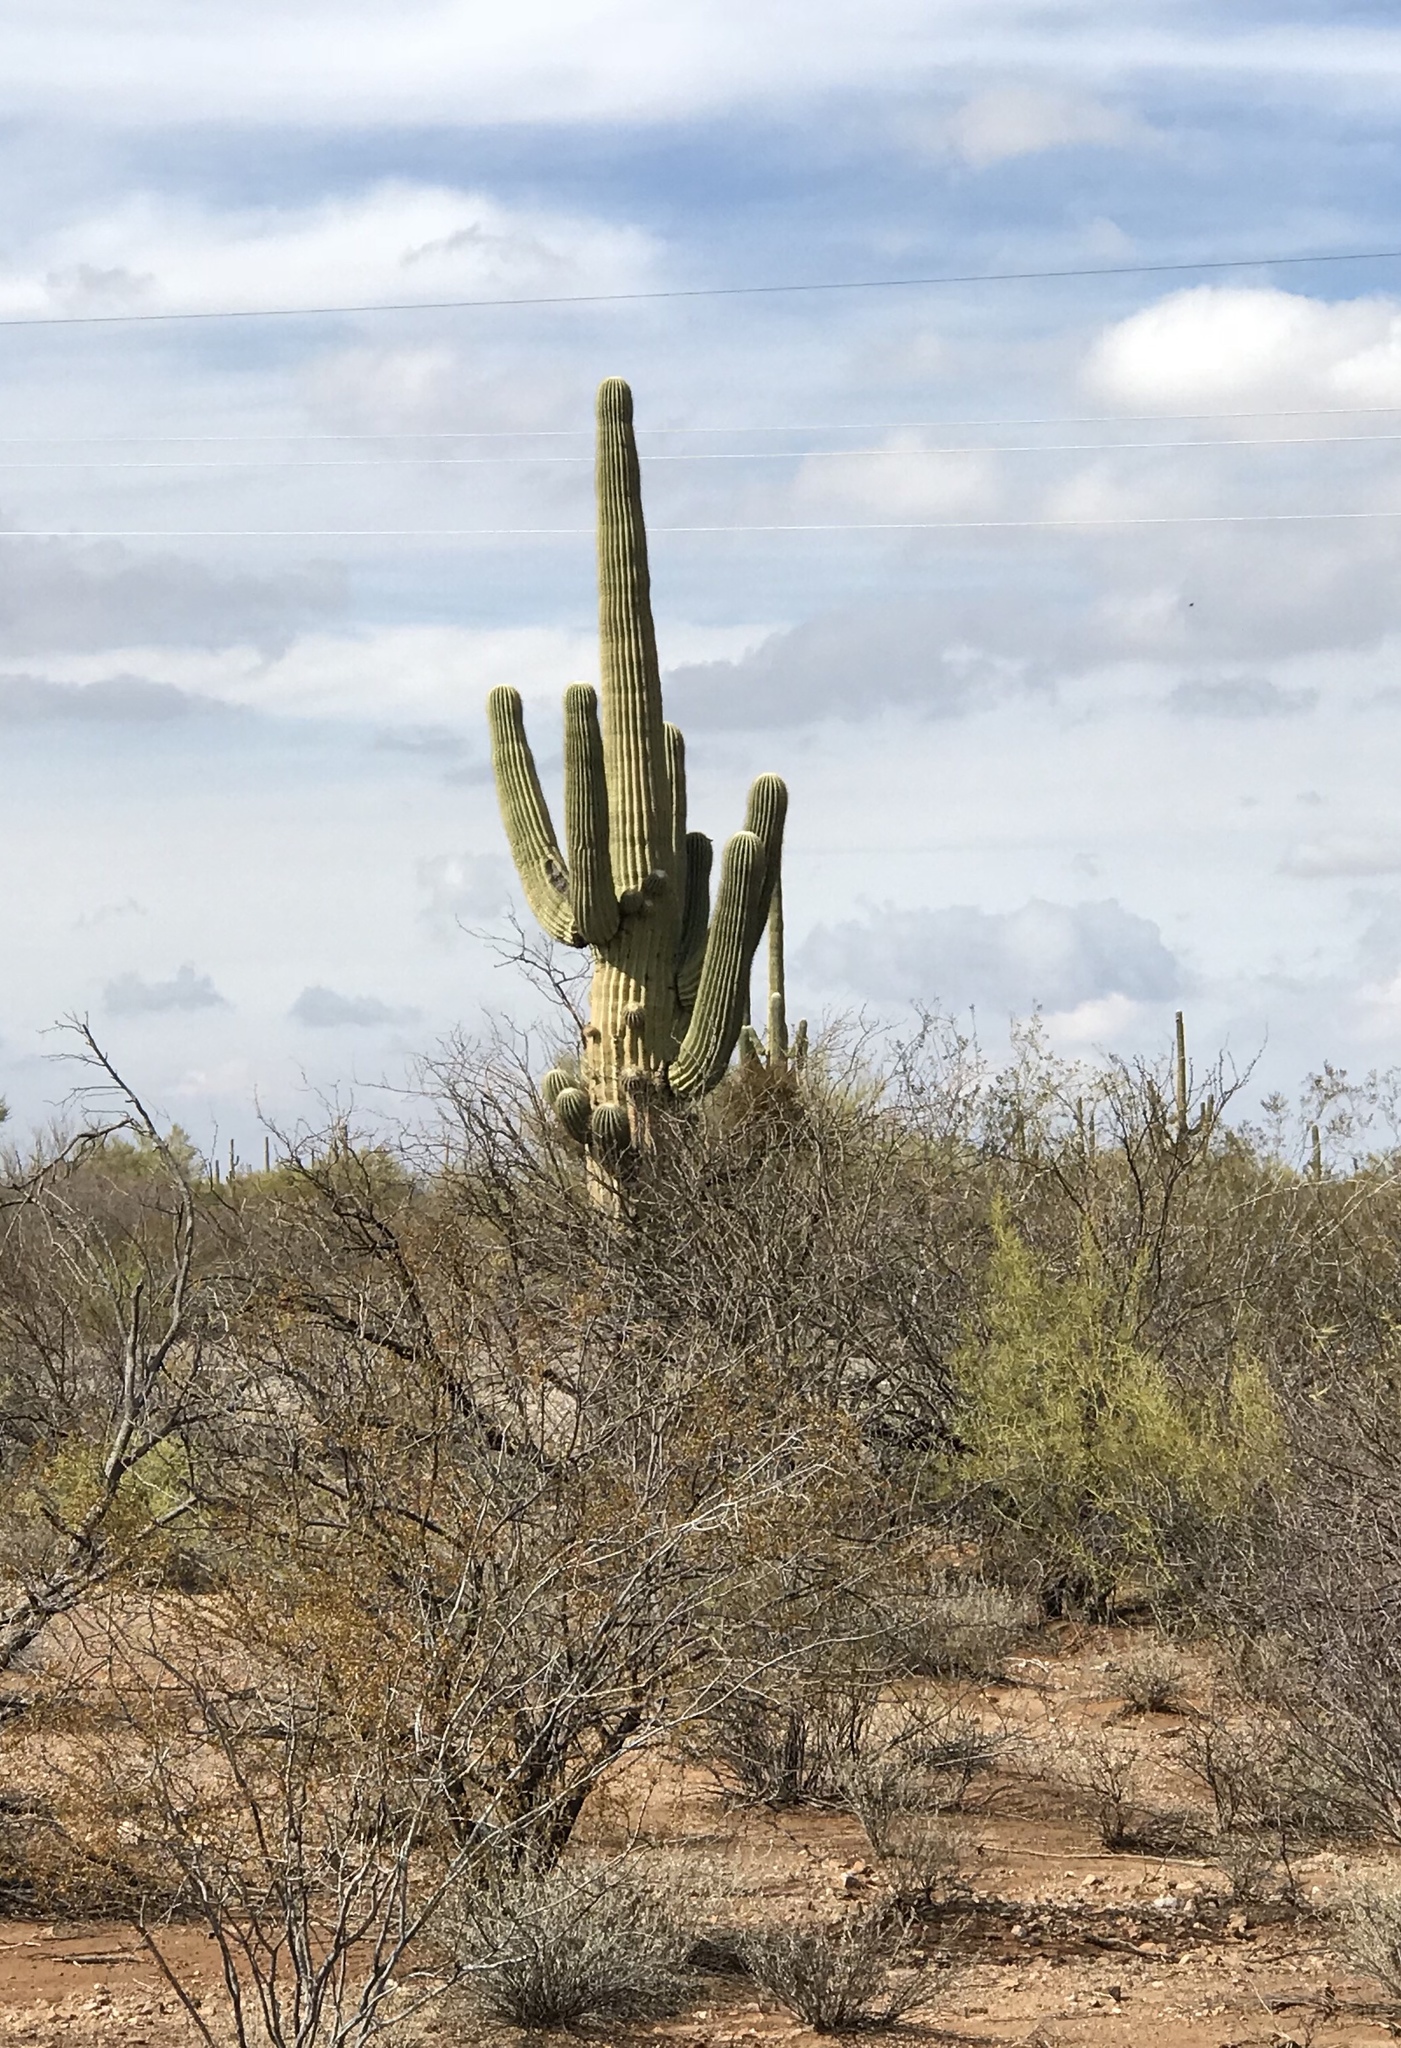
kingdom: Plantae
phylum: Tracheophyta
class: Magnoliopsida
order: Caryophyllales
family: Cactaceae
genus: Carnegiea
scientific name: Carnegiea gigantea
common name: Saguaro
